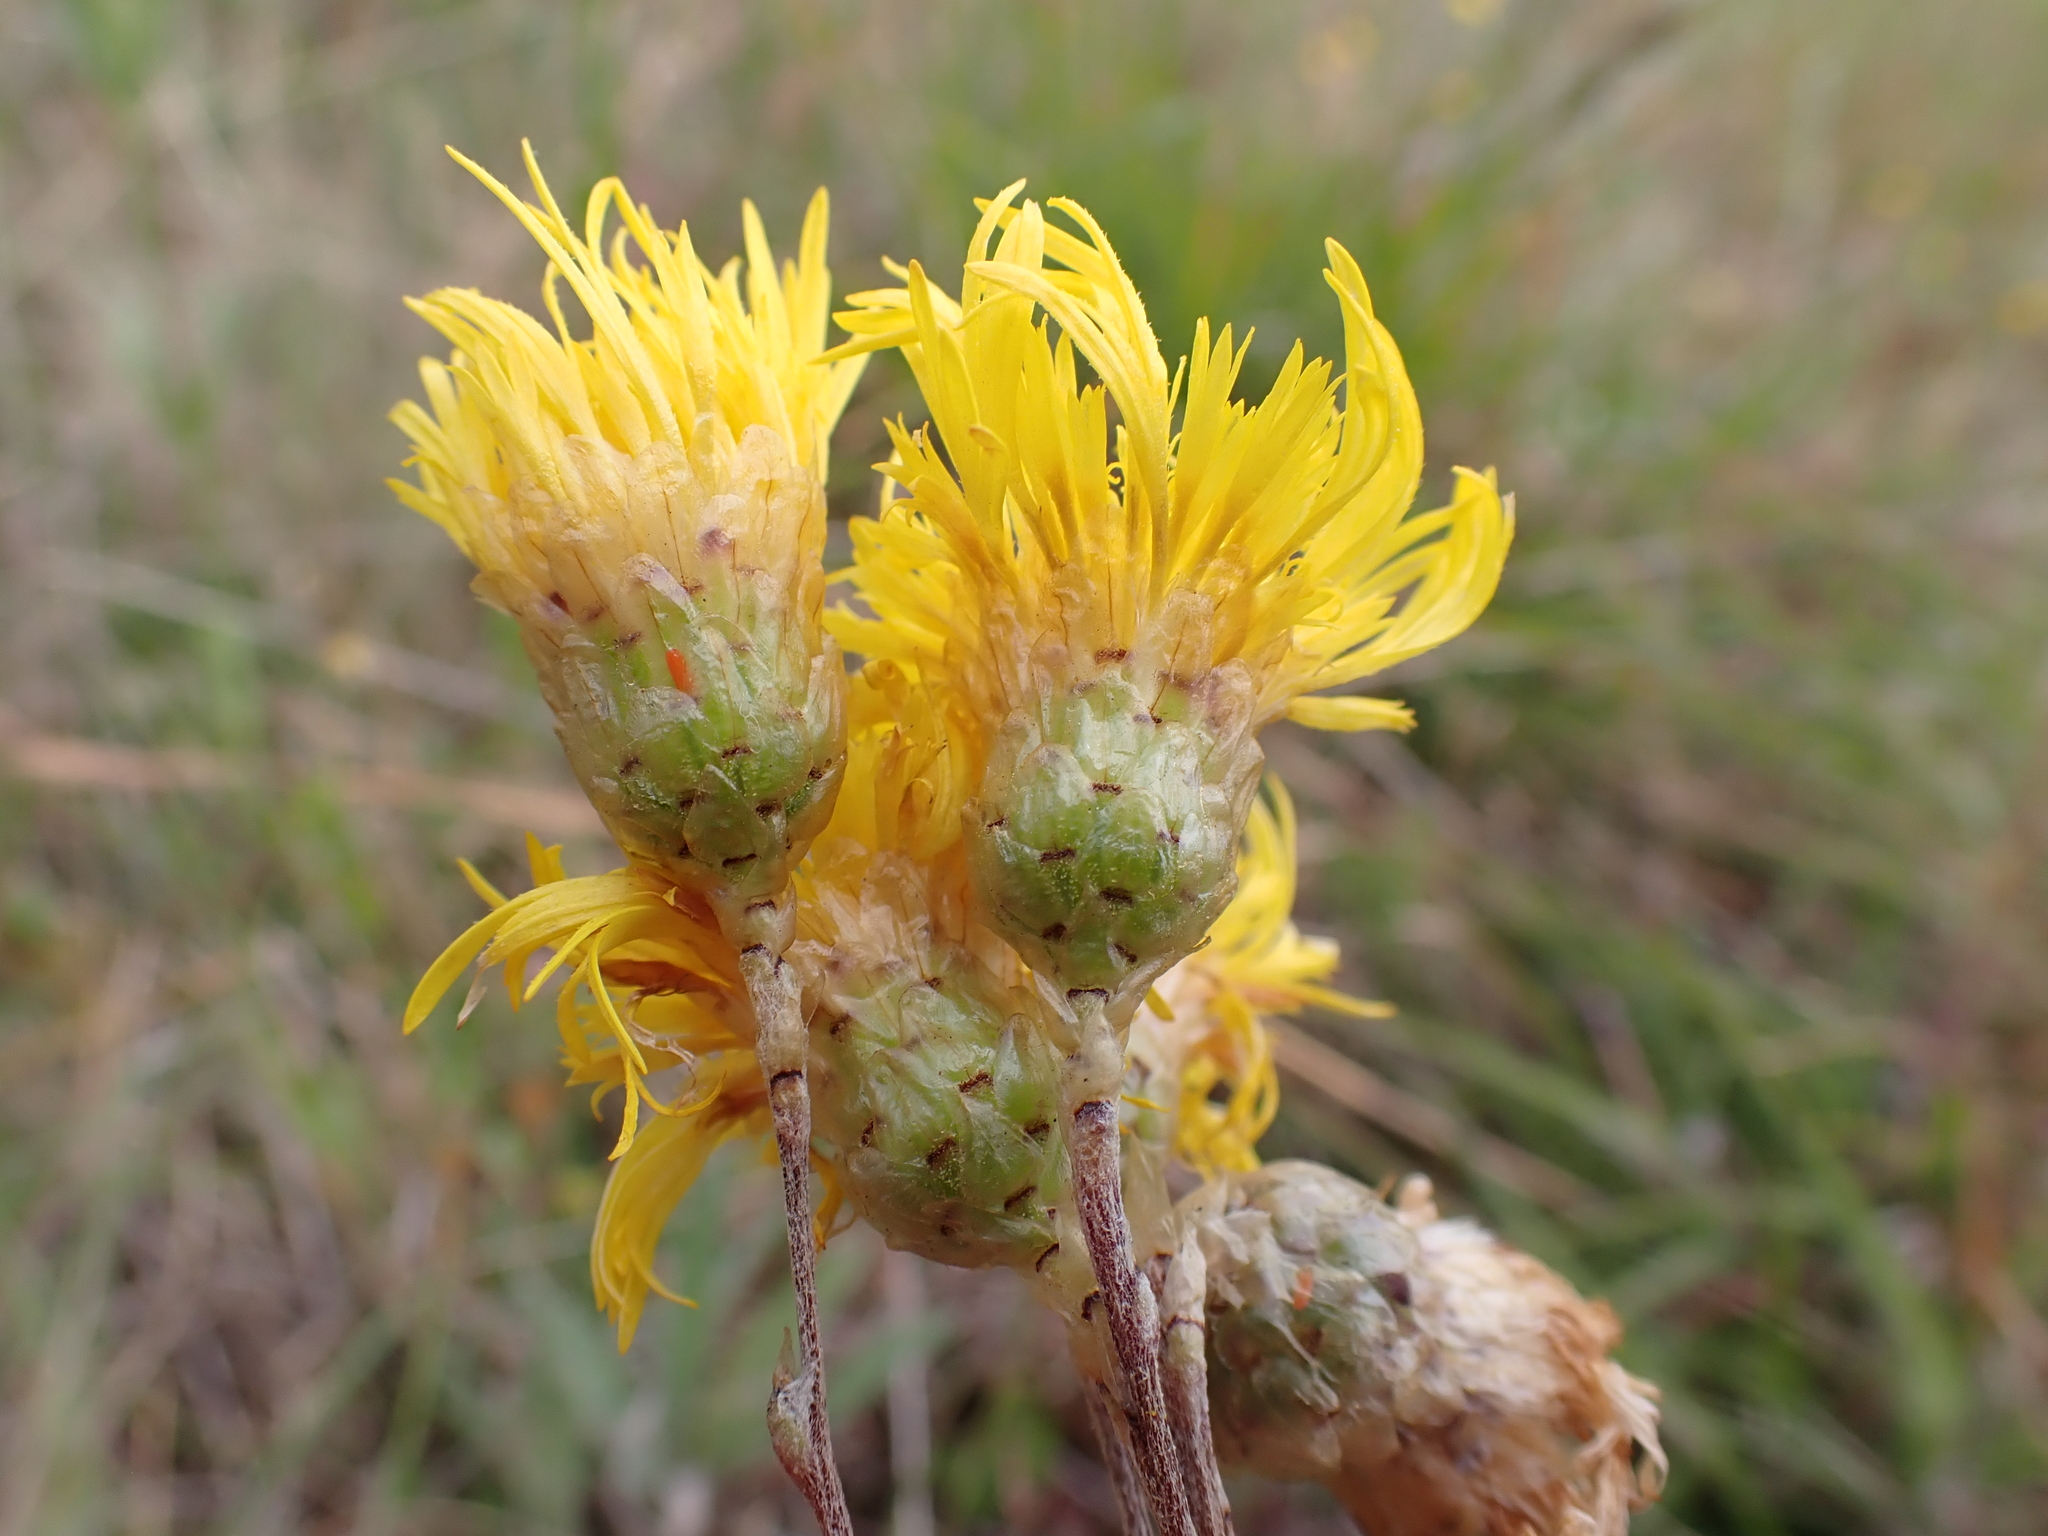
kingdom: Plantae
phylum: Tracheophyta
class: Magnoliopsida
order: Asterales
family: Asteraceae
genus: Podolepis
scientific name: Podolepis hieracioides
